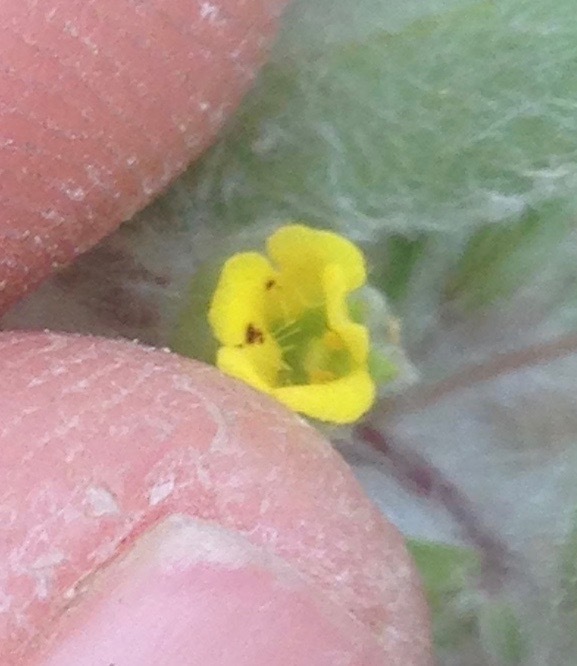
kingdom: Plantae
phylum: Tracheophyta
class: Magnoliopsida
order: Lamiales
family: Phrymaceae
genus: Mimetanthe
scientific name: Mimetanthe pilosa
